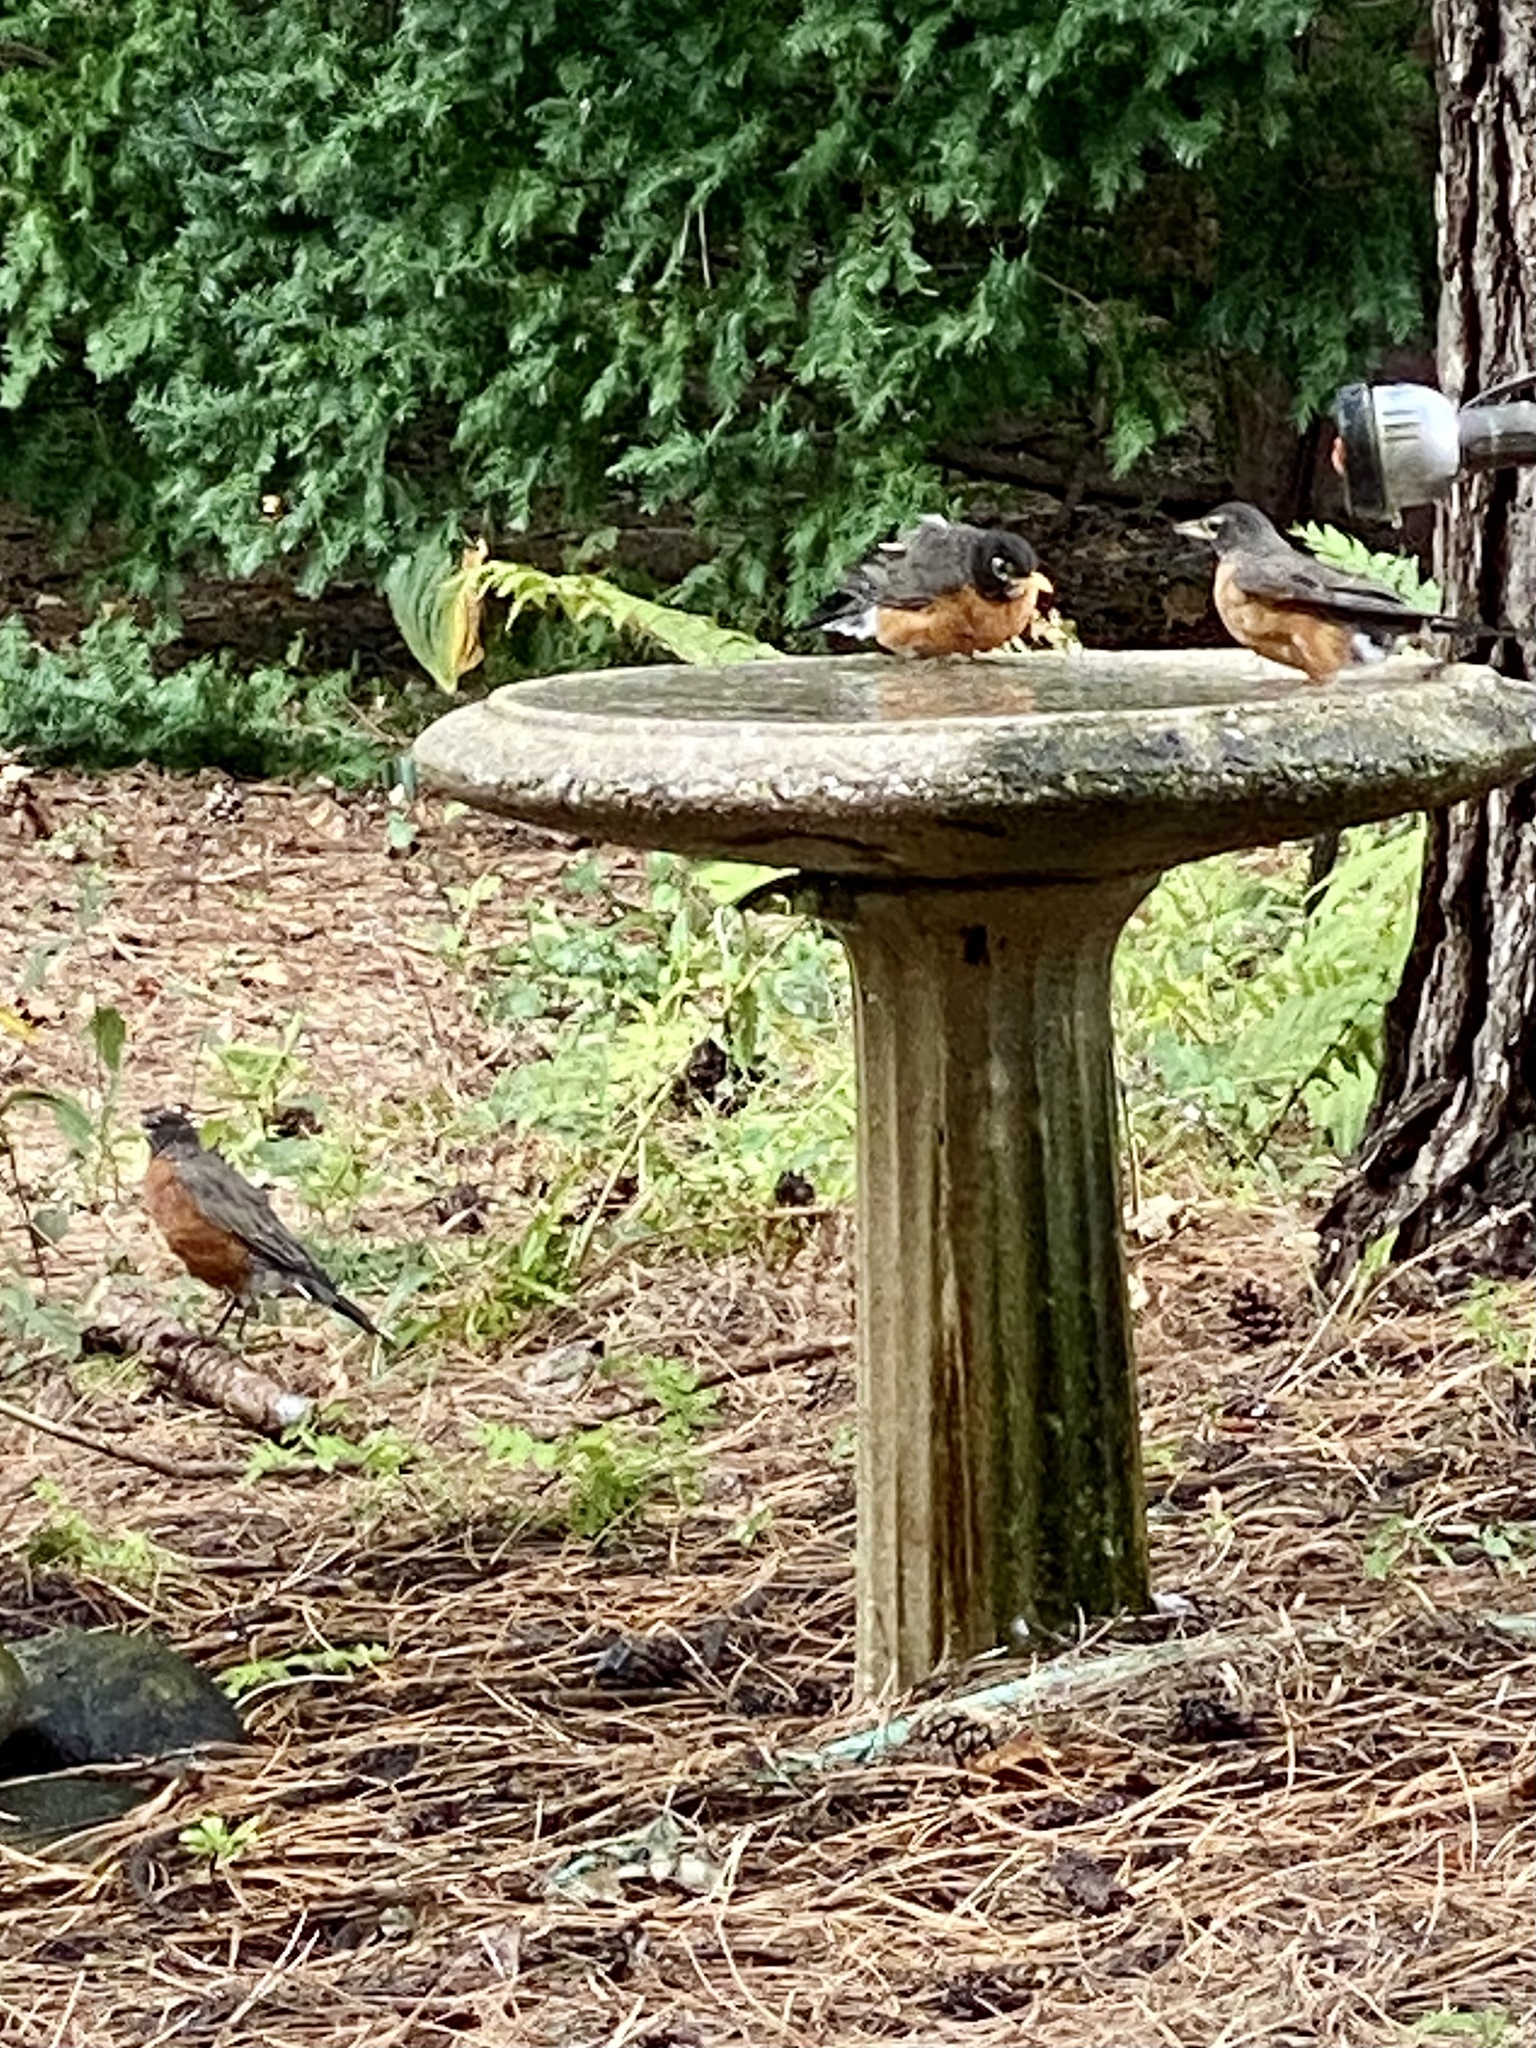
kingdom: Animalia
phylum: Chordata
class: Aves
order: Passeriformes
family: Turdidae
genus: Turdus
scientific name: Turdus migratorius
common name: American robin
